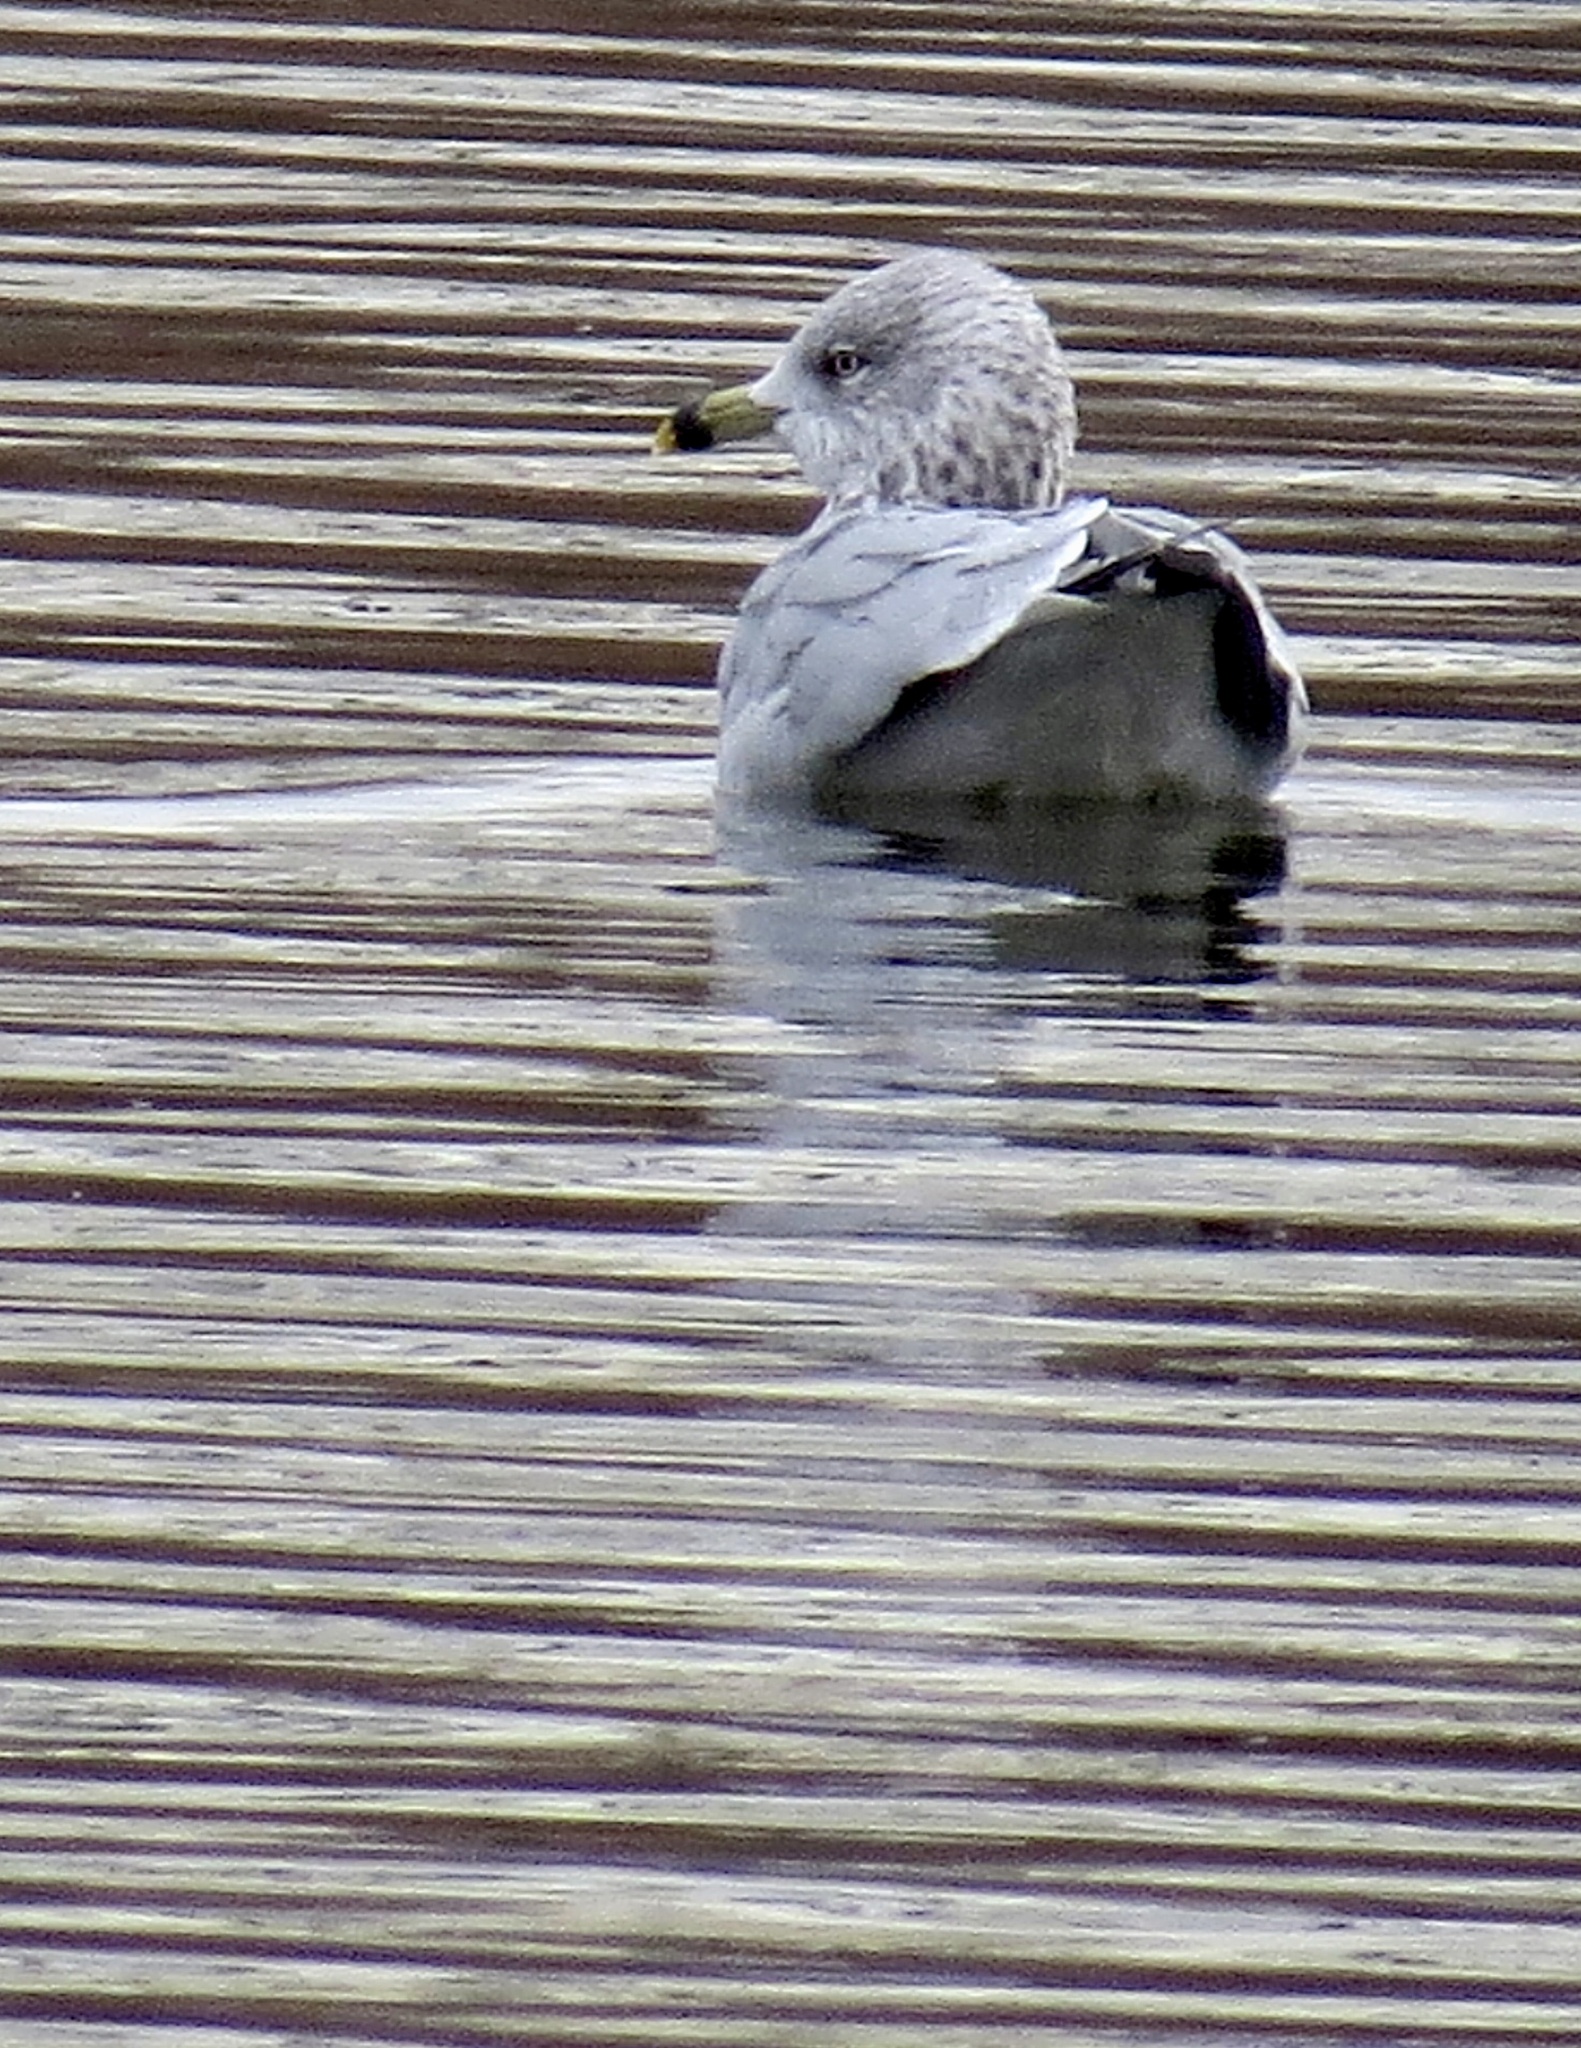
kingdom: Animalia
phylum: Chordata
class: Aves
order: Charadriiformes
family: Laridae
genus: Larus
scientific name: Larus delawarensis
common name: Ring-billed gull
